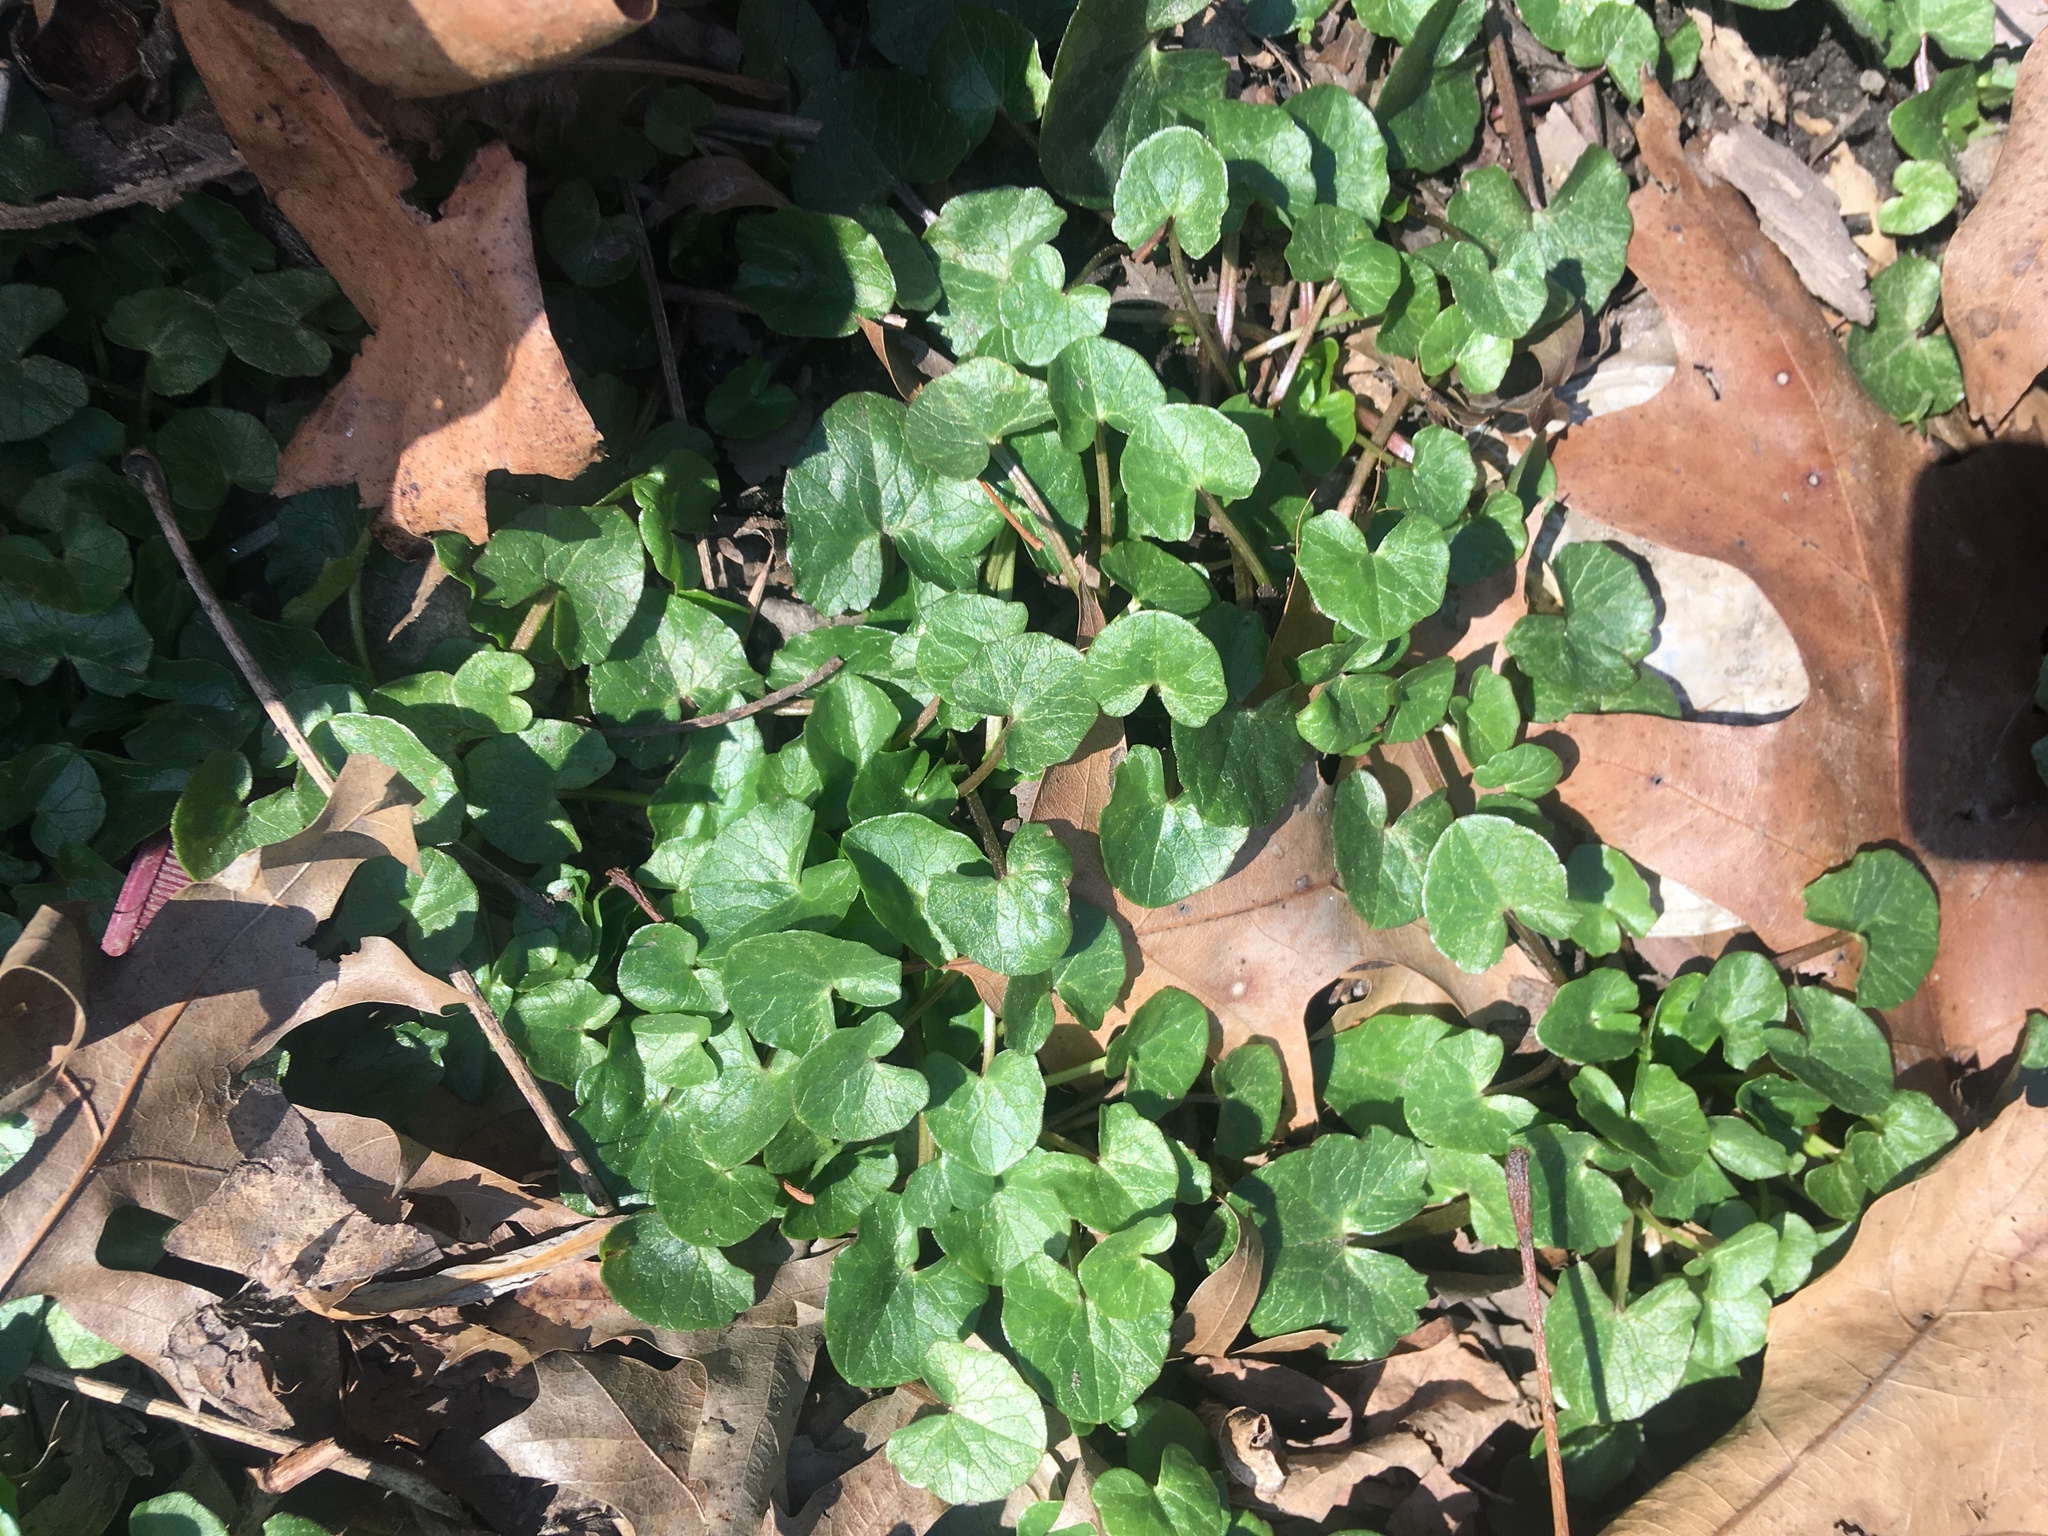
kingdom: Plantae
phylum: Tracheophyta
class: Magnoliopsida
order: Ranunculales
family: Ranunculaceae
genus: Ficaria
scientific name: Ficaria verna
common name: Lesser celandine
